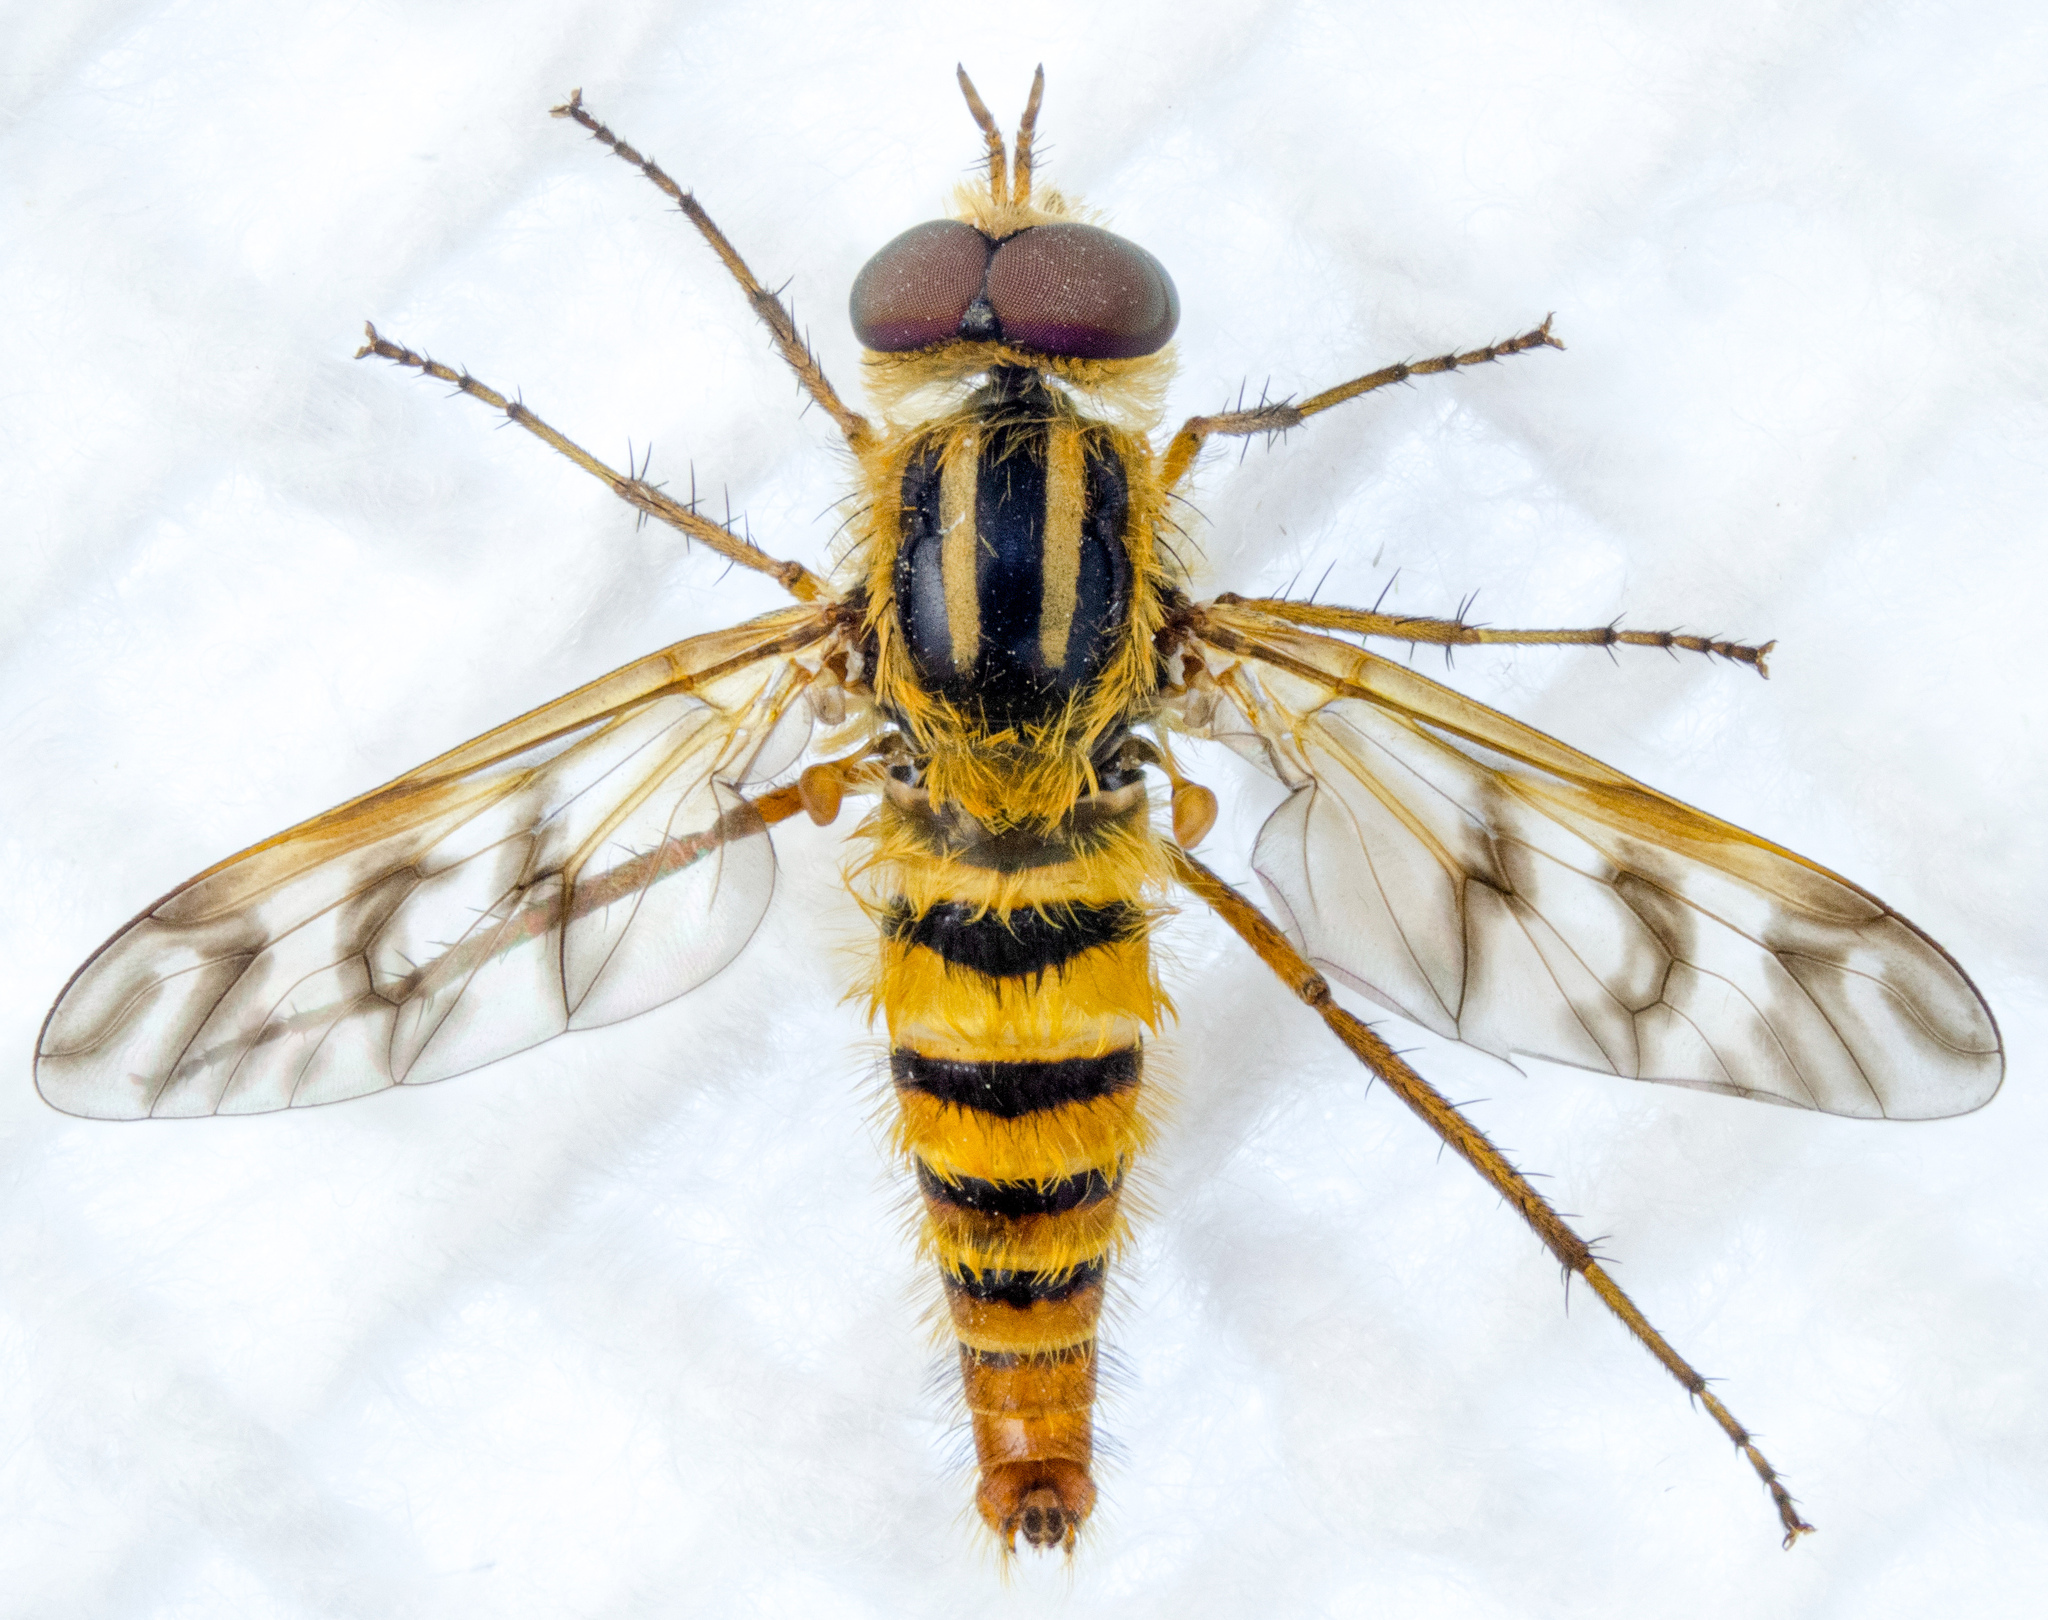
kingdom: Animalia
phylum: Arthropoda
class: Insecta
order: Diptera
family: Therevidae
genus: Thereva
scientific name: Thereva fucata
